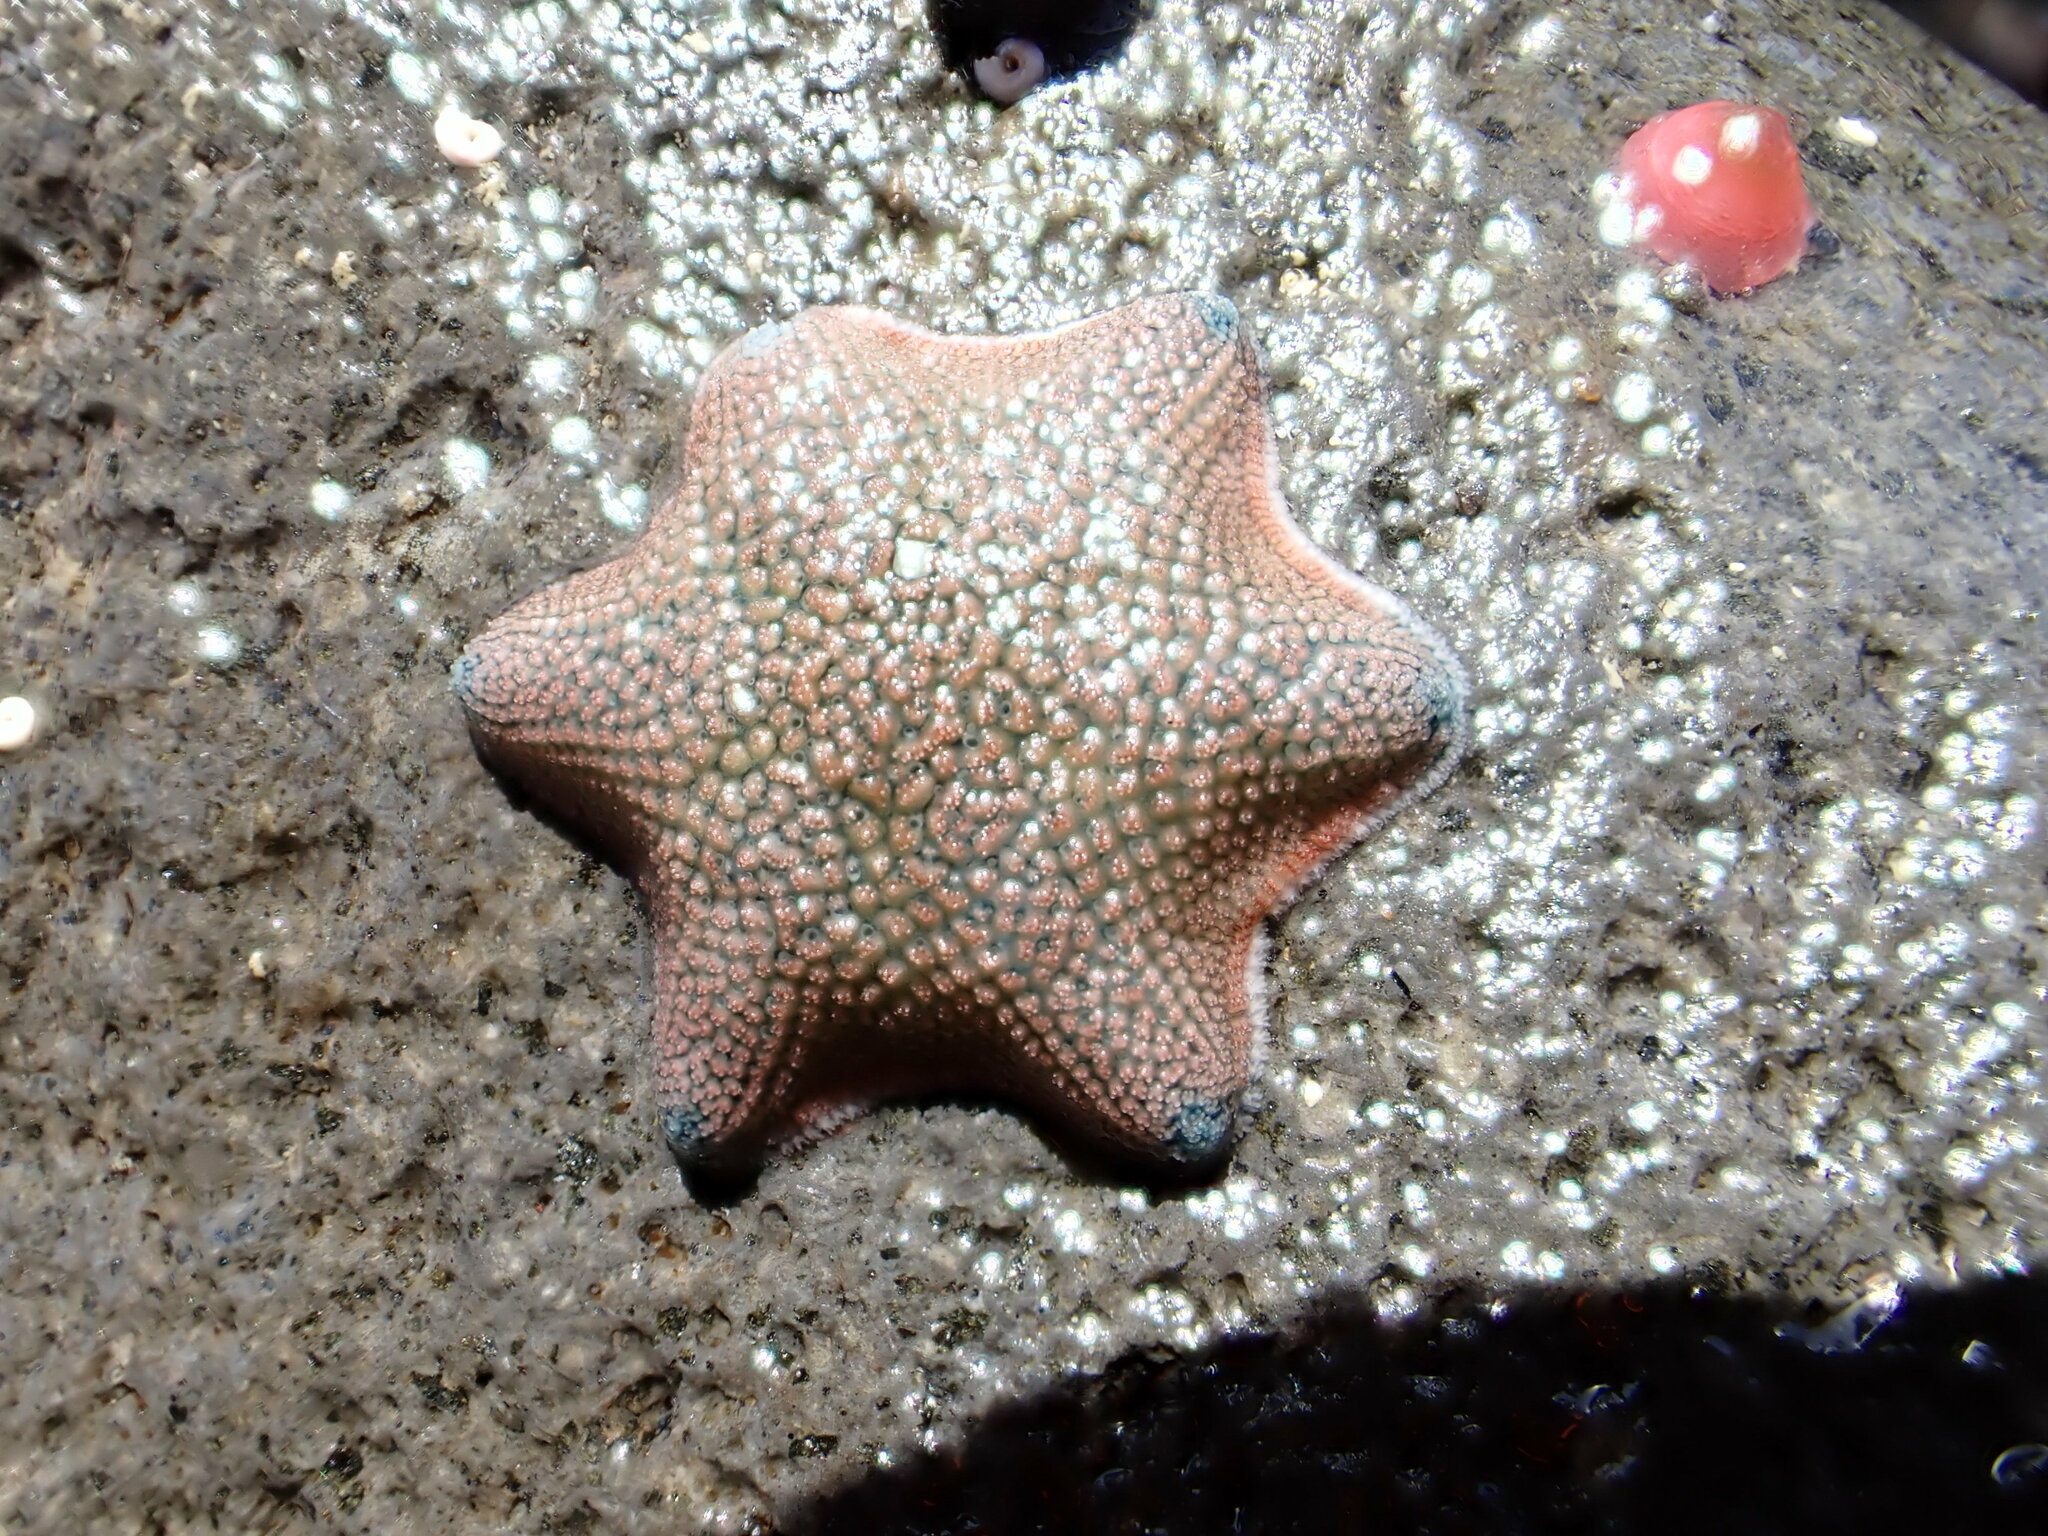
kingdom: Animalia
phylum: Echinodermata
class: Asteroidea
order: Valvatida
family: Asterinidae
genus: Patiriella
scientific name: Patiriella regularis
